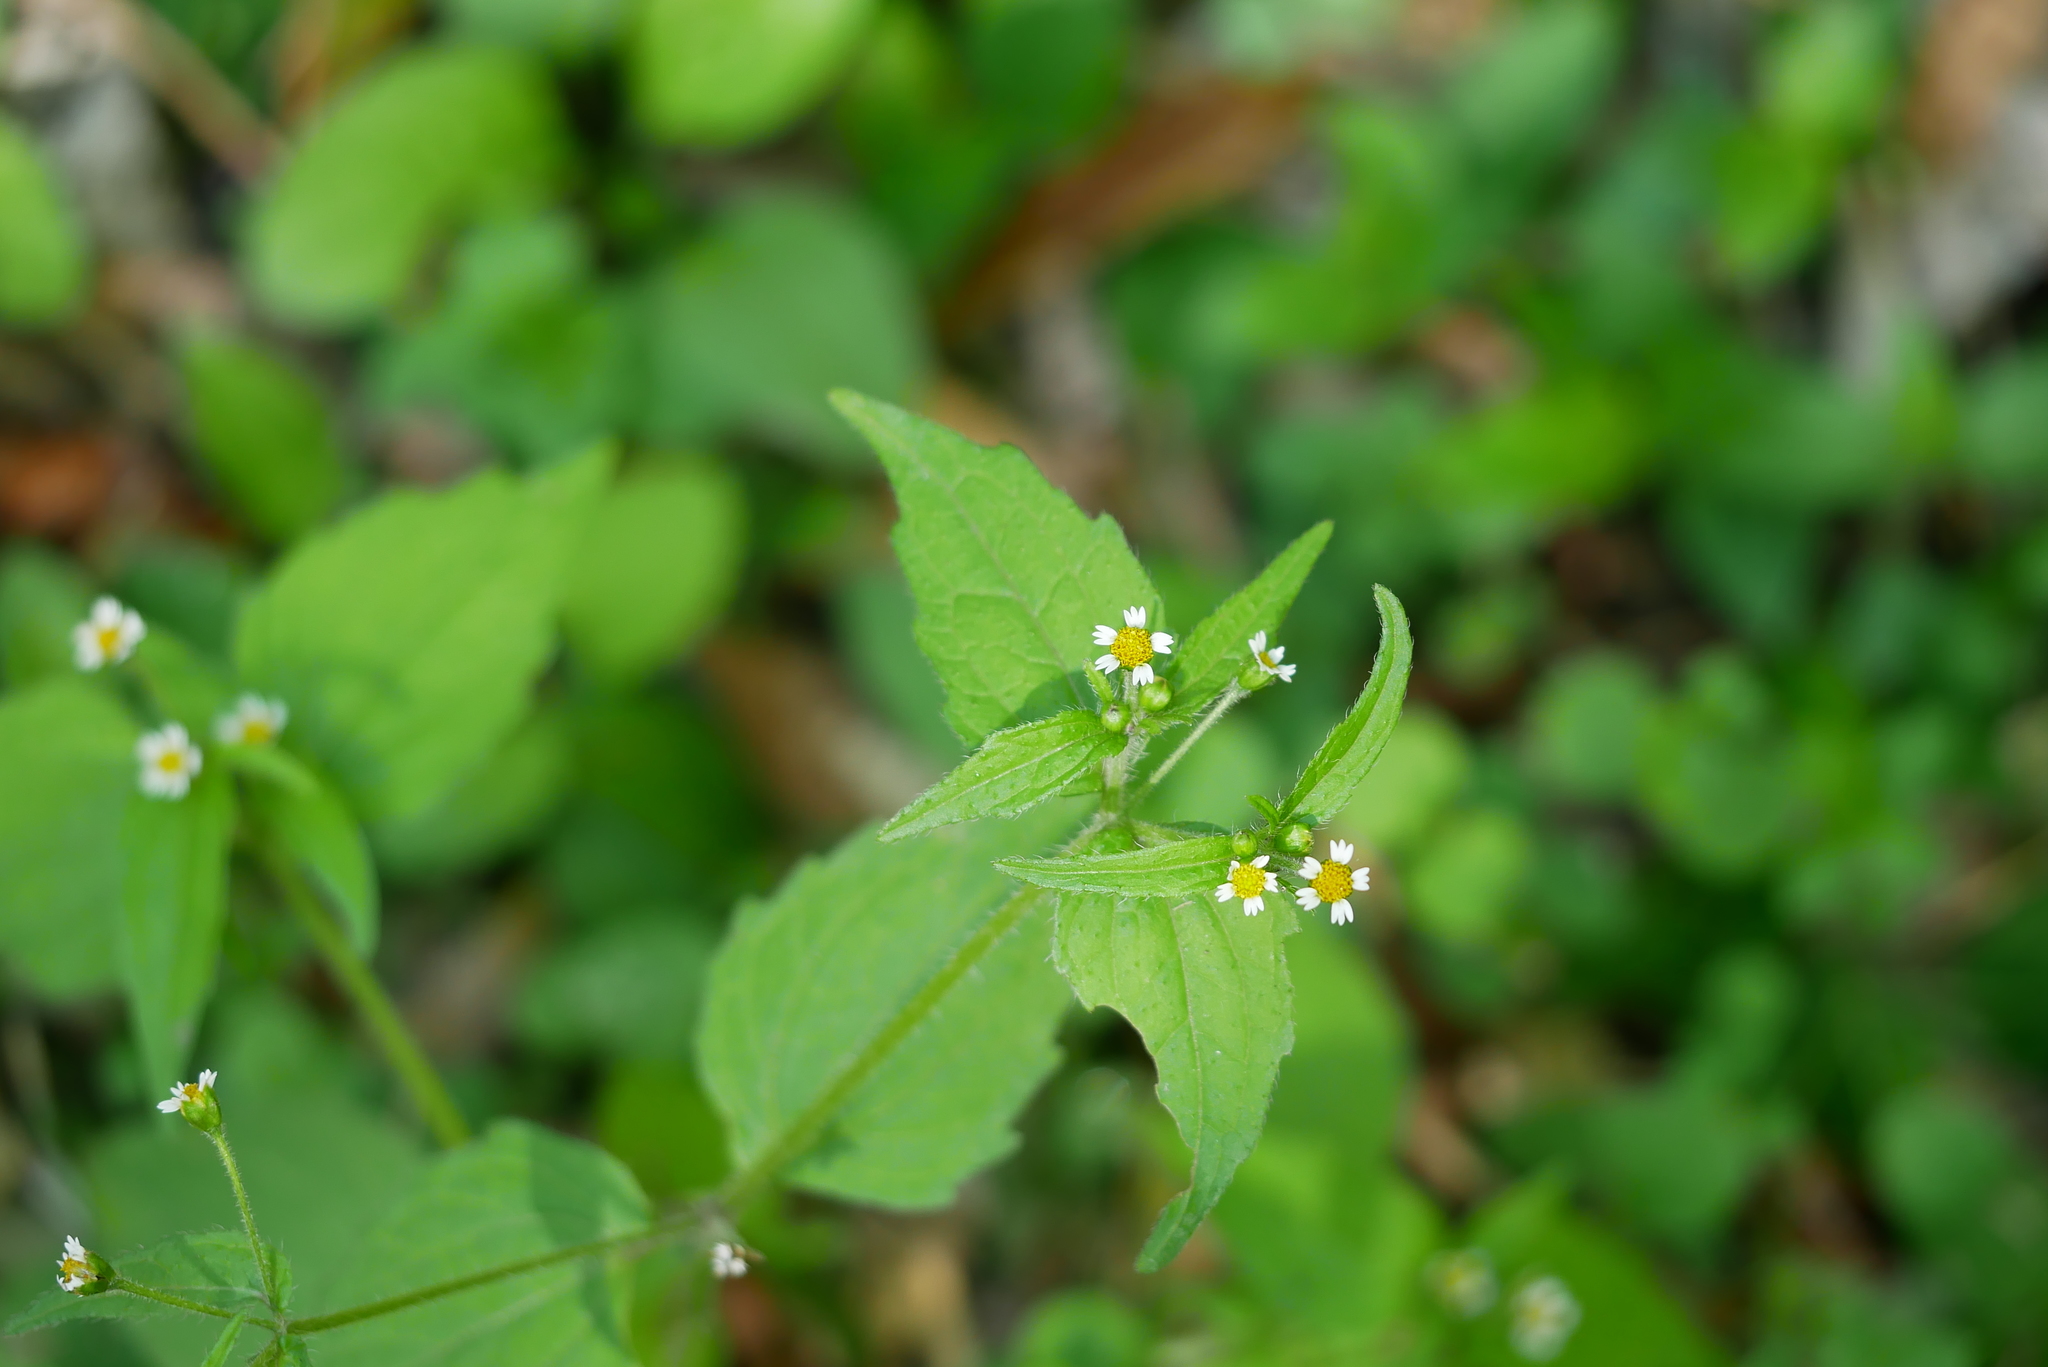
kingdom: Plantae
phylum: Tracheophyta
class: Magnoliopsida
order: Asterales
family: Asteraceae
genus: Galinsoga
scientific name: Galinsoga quadriradiata
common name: Shaggy soldier
